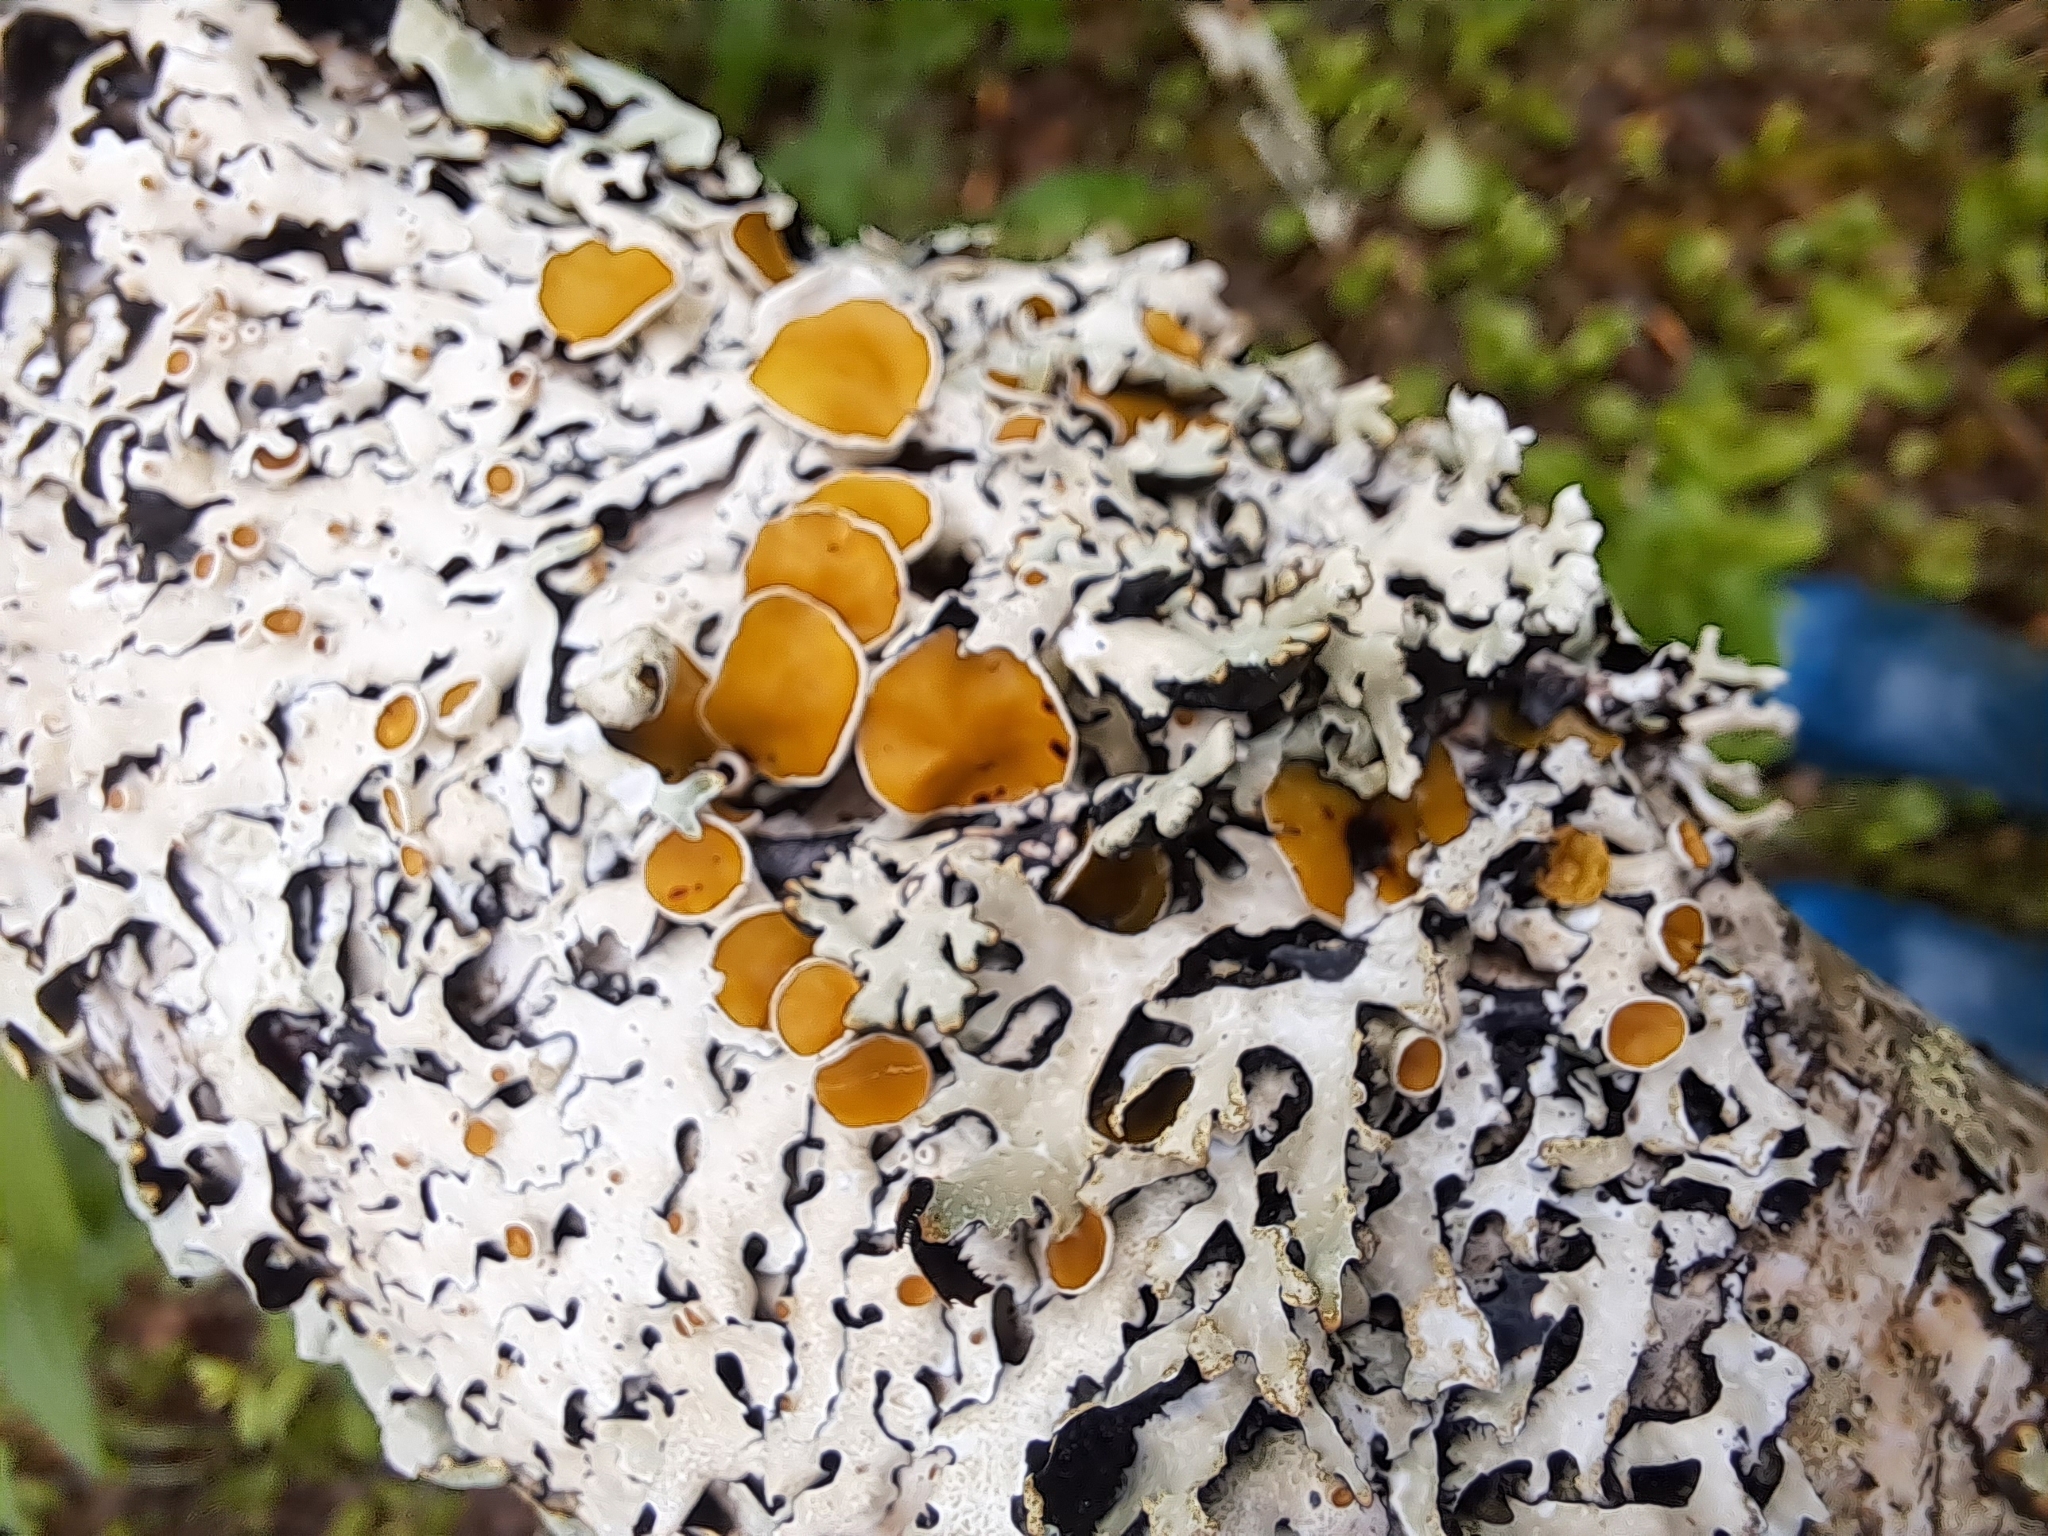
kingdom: Fungi
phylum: Ascomycota
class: Lecanoromycetes
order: Lecanorales
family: Parmeliaceae
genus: Parmelia
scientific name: Parmelia squarrosa
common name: Bottle brush shield lichen
